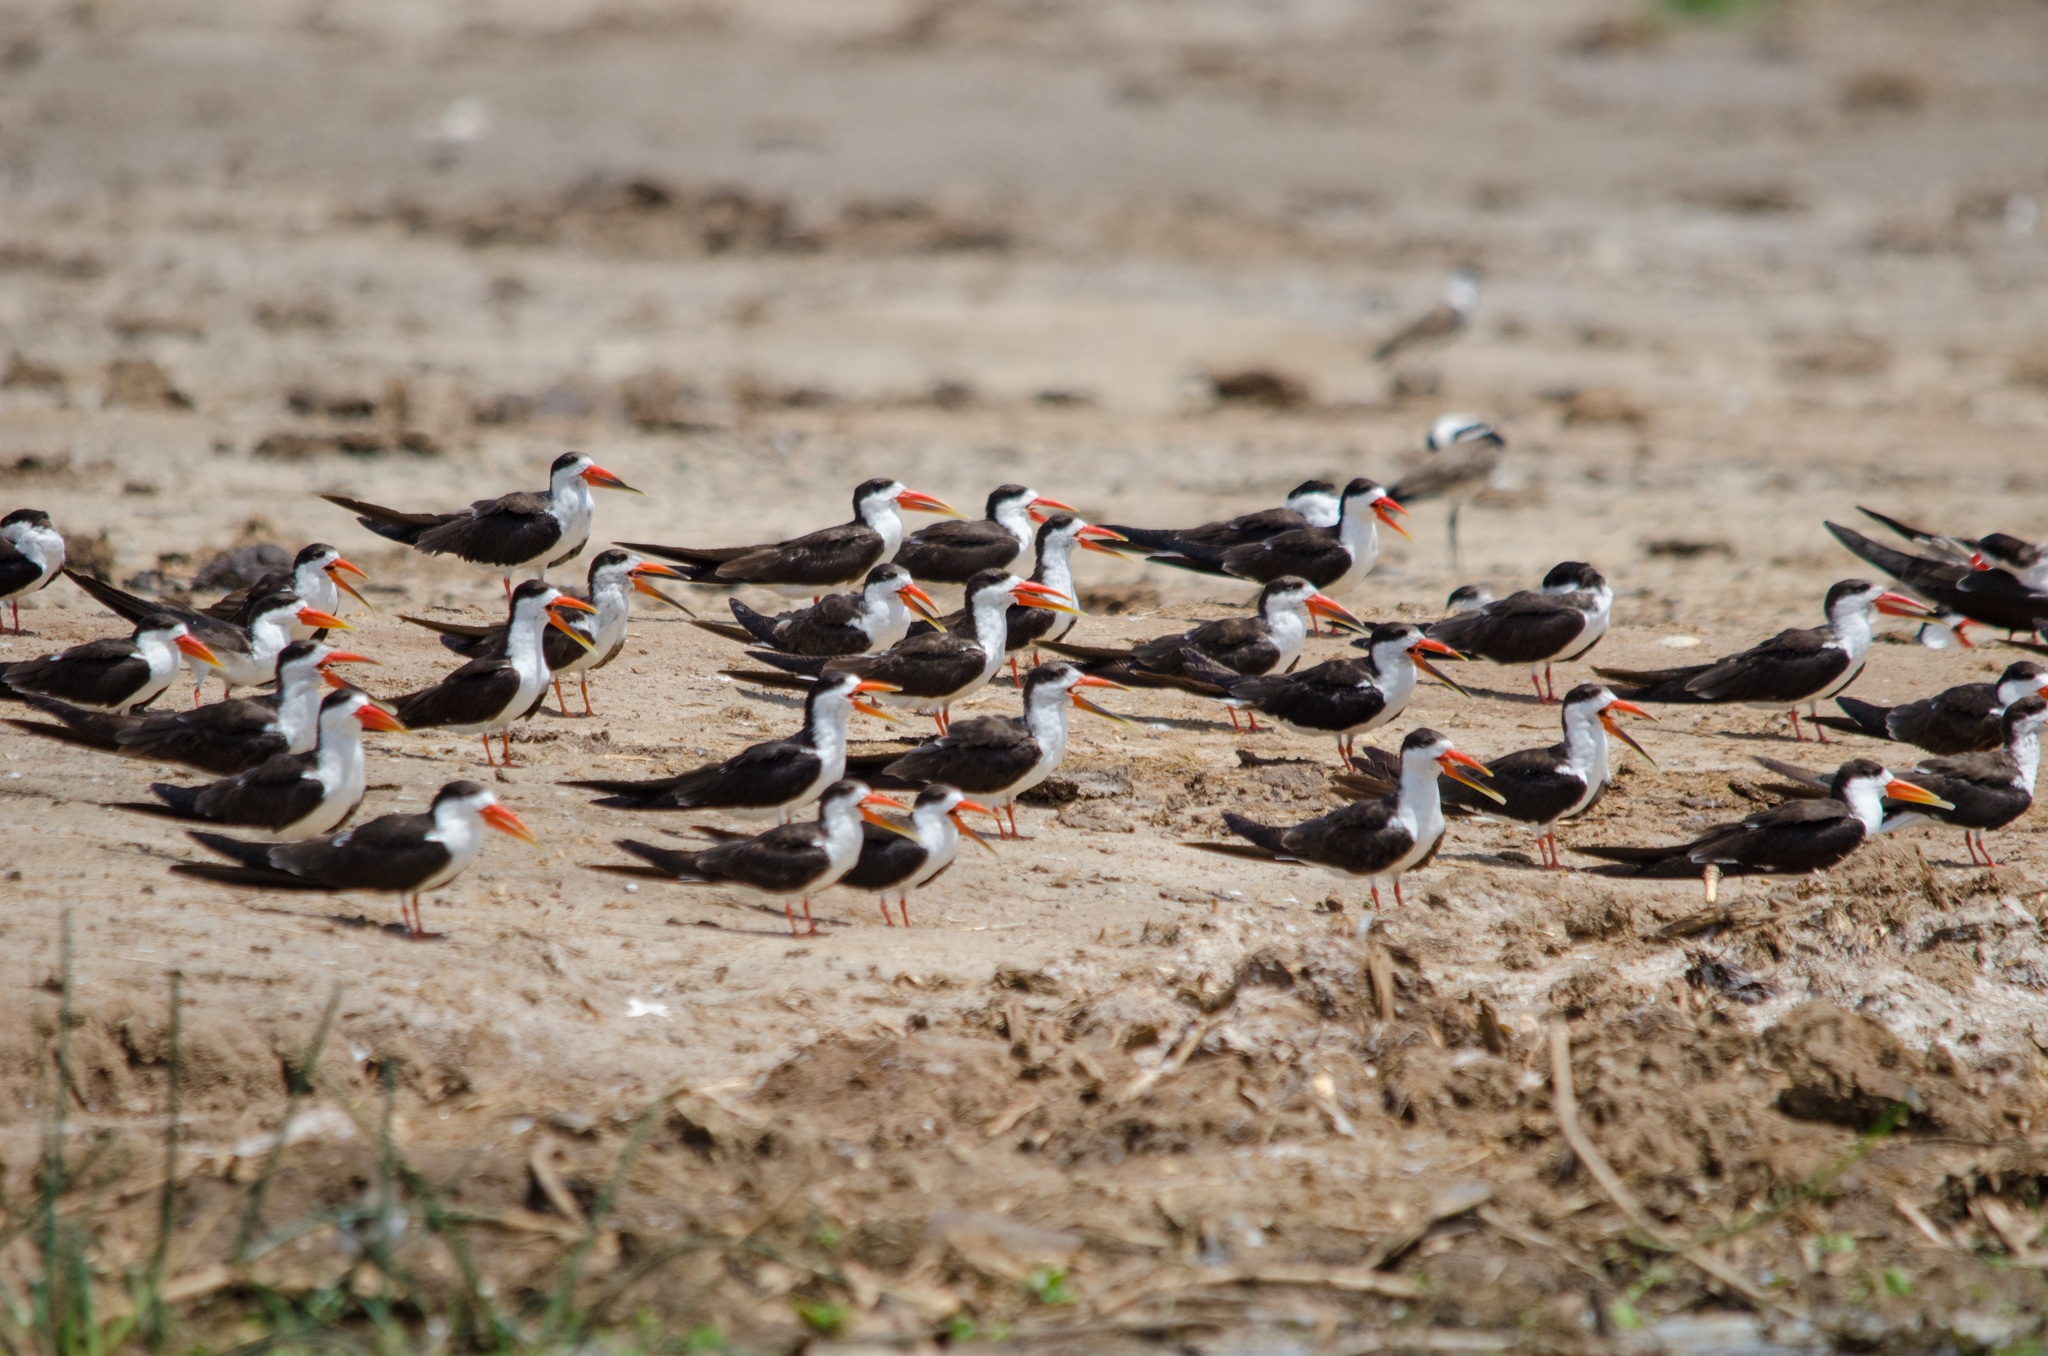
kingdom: Animalia
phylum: Chordata
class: Aves
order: Charadriiformes
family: Laridae
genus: Rynchops
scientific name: Rynchops flavirostris
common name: African skimmer
